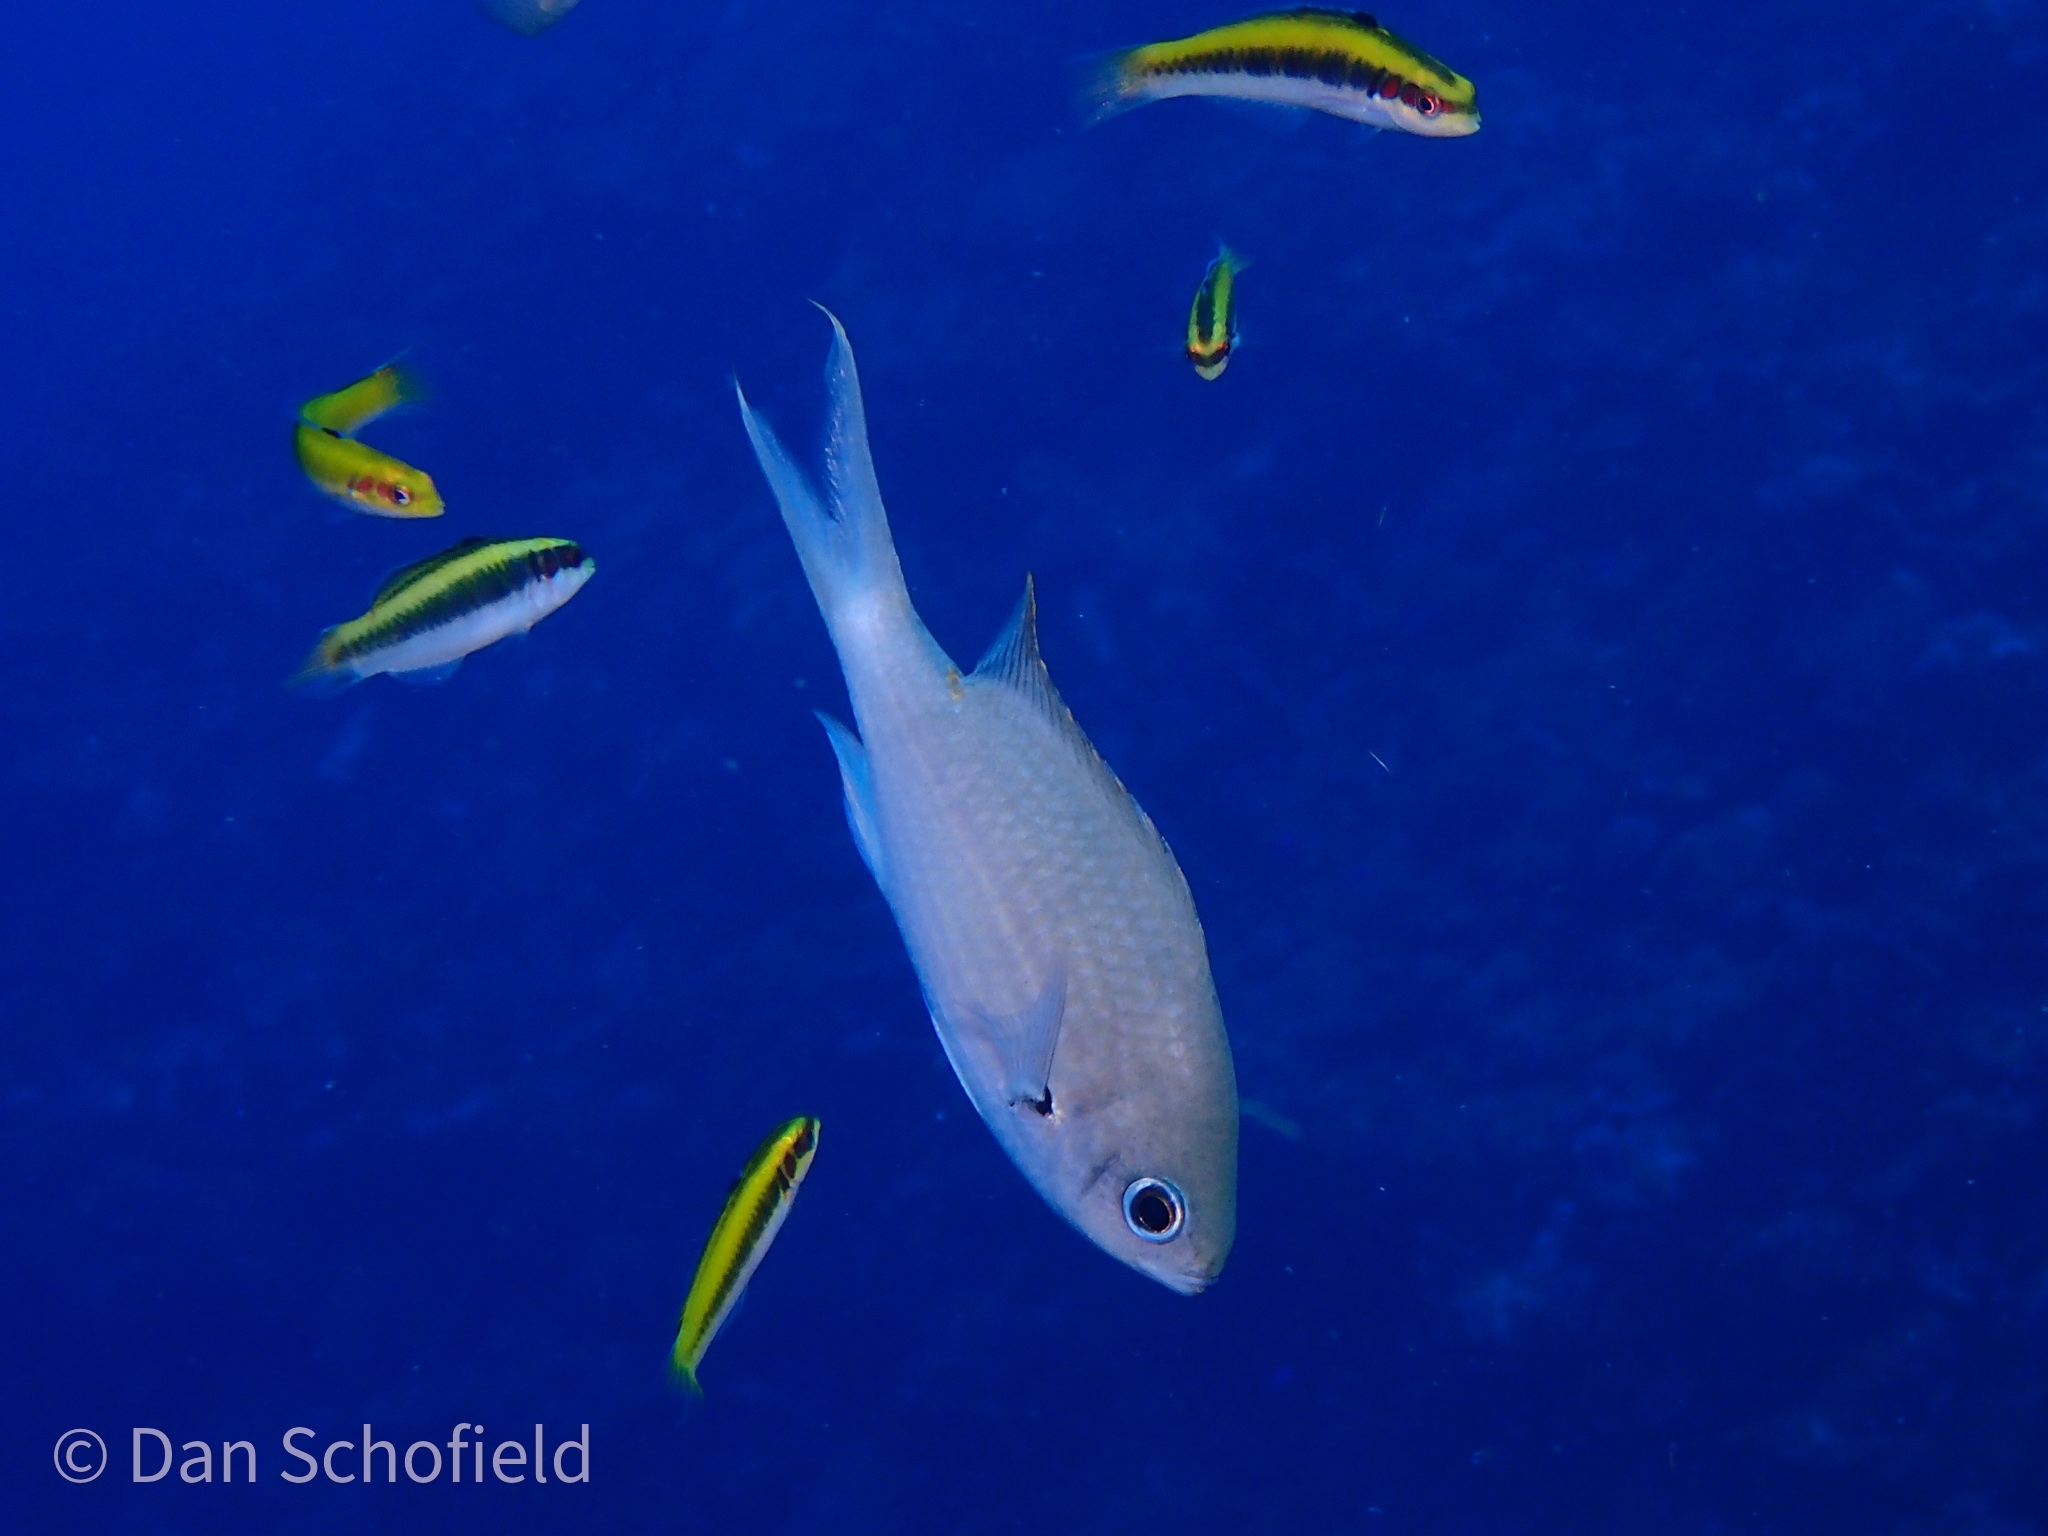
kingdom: Animalia
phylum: Chordata
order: Perciformes
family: Pomacentridae
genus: Chromis
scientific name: Chromis multilineata
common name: Brown chromis
